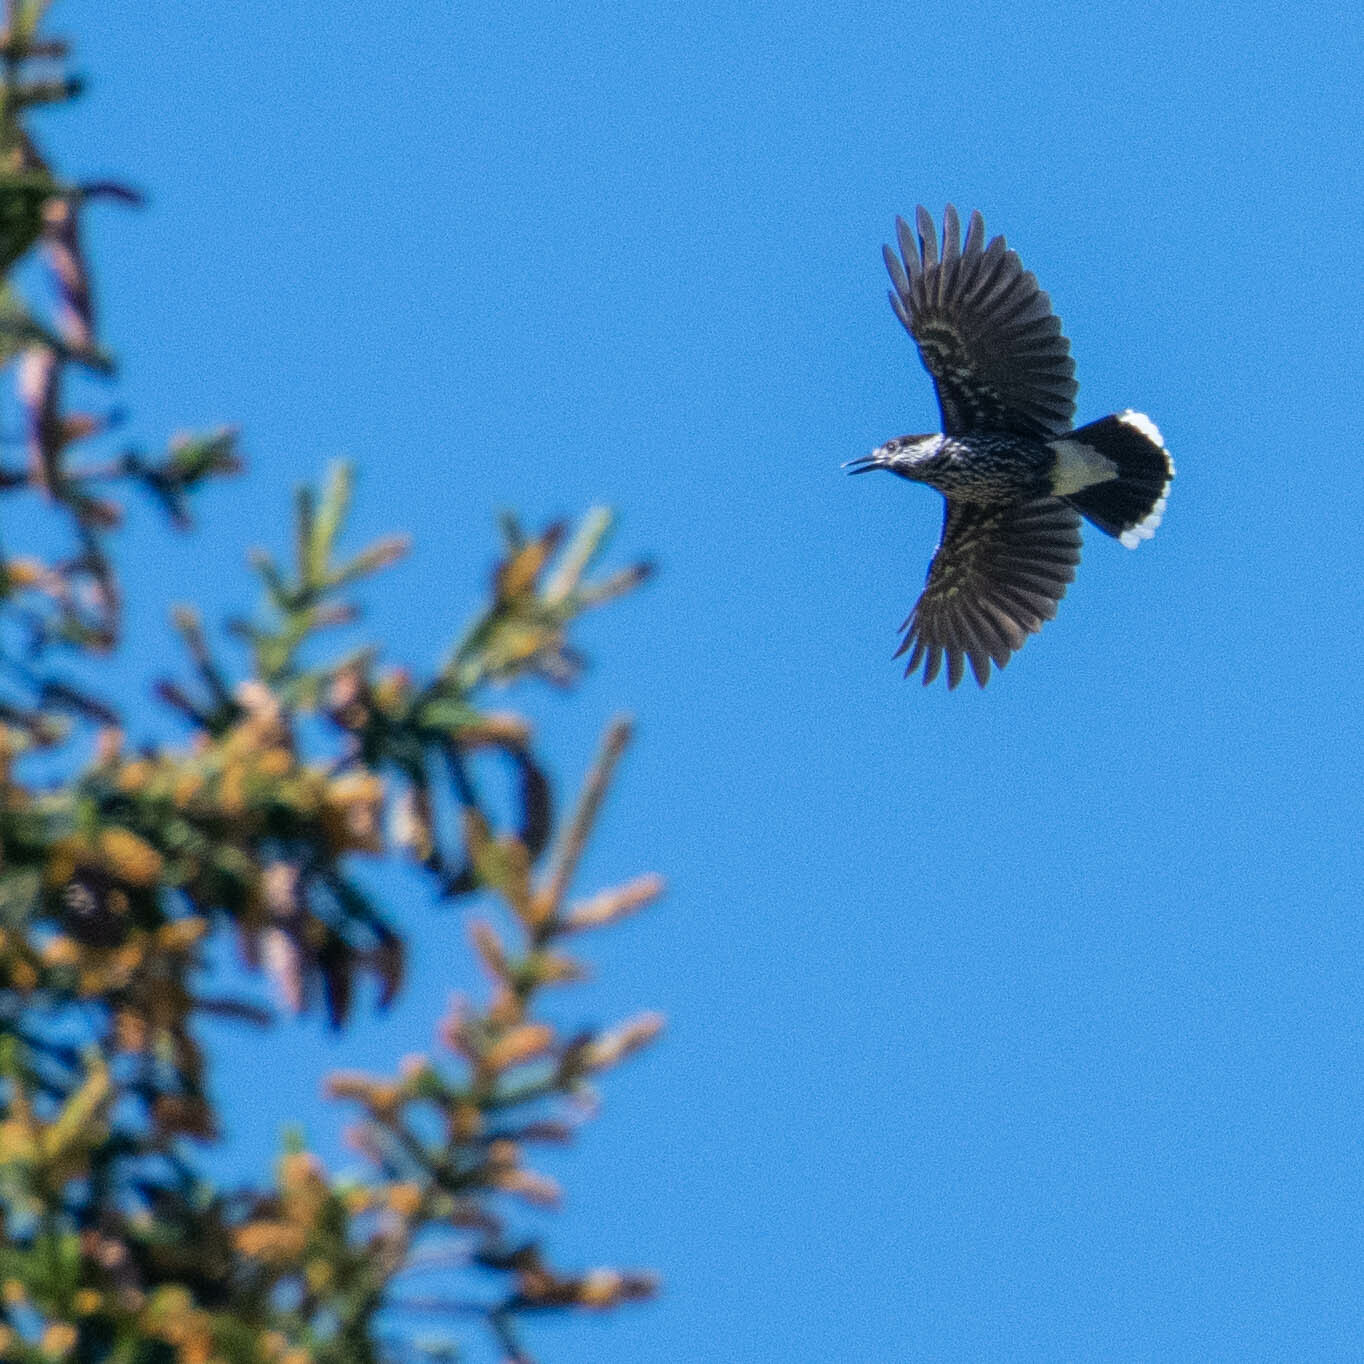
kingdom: Animalia
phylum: Chordata
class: Aves
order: Passeriformes
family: Corvidae
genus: Nucifraga
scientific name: Nucifraga caryocatactes
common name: Spotted nutcracker
